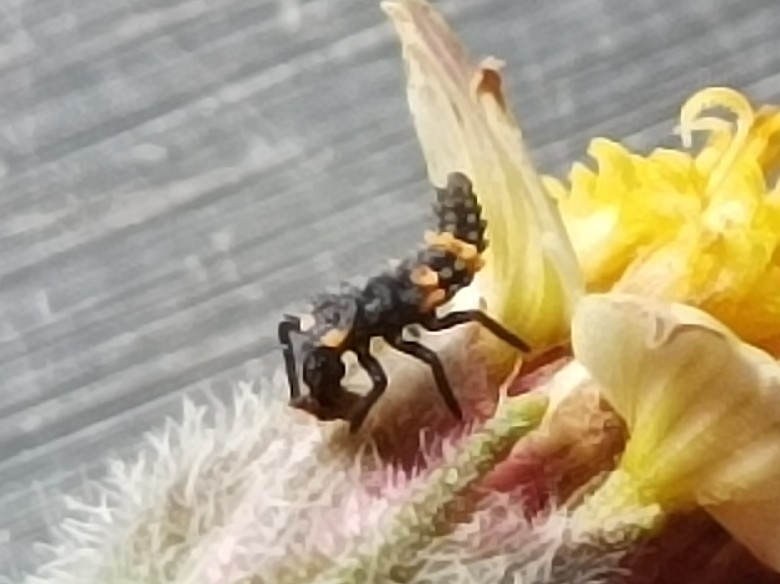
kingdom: Animalia
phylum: Arthropoda
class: Insecta
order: Coleoptera
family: Coccinellidae
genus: Coccinella
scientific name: Coccinella transversalis
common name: Transverse lady beetle
